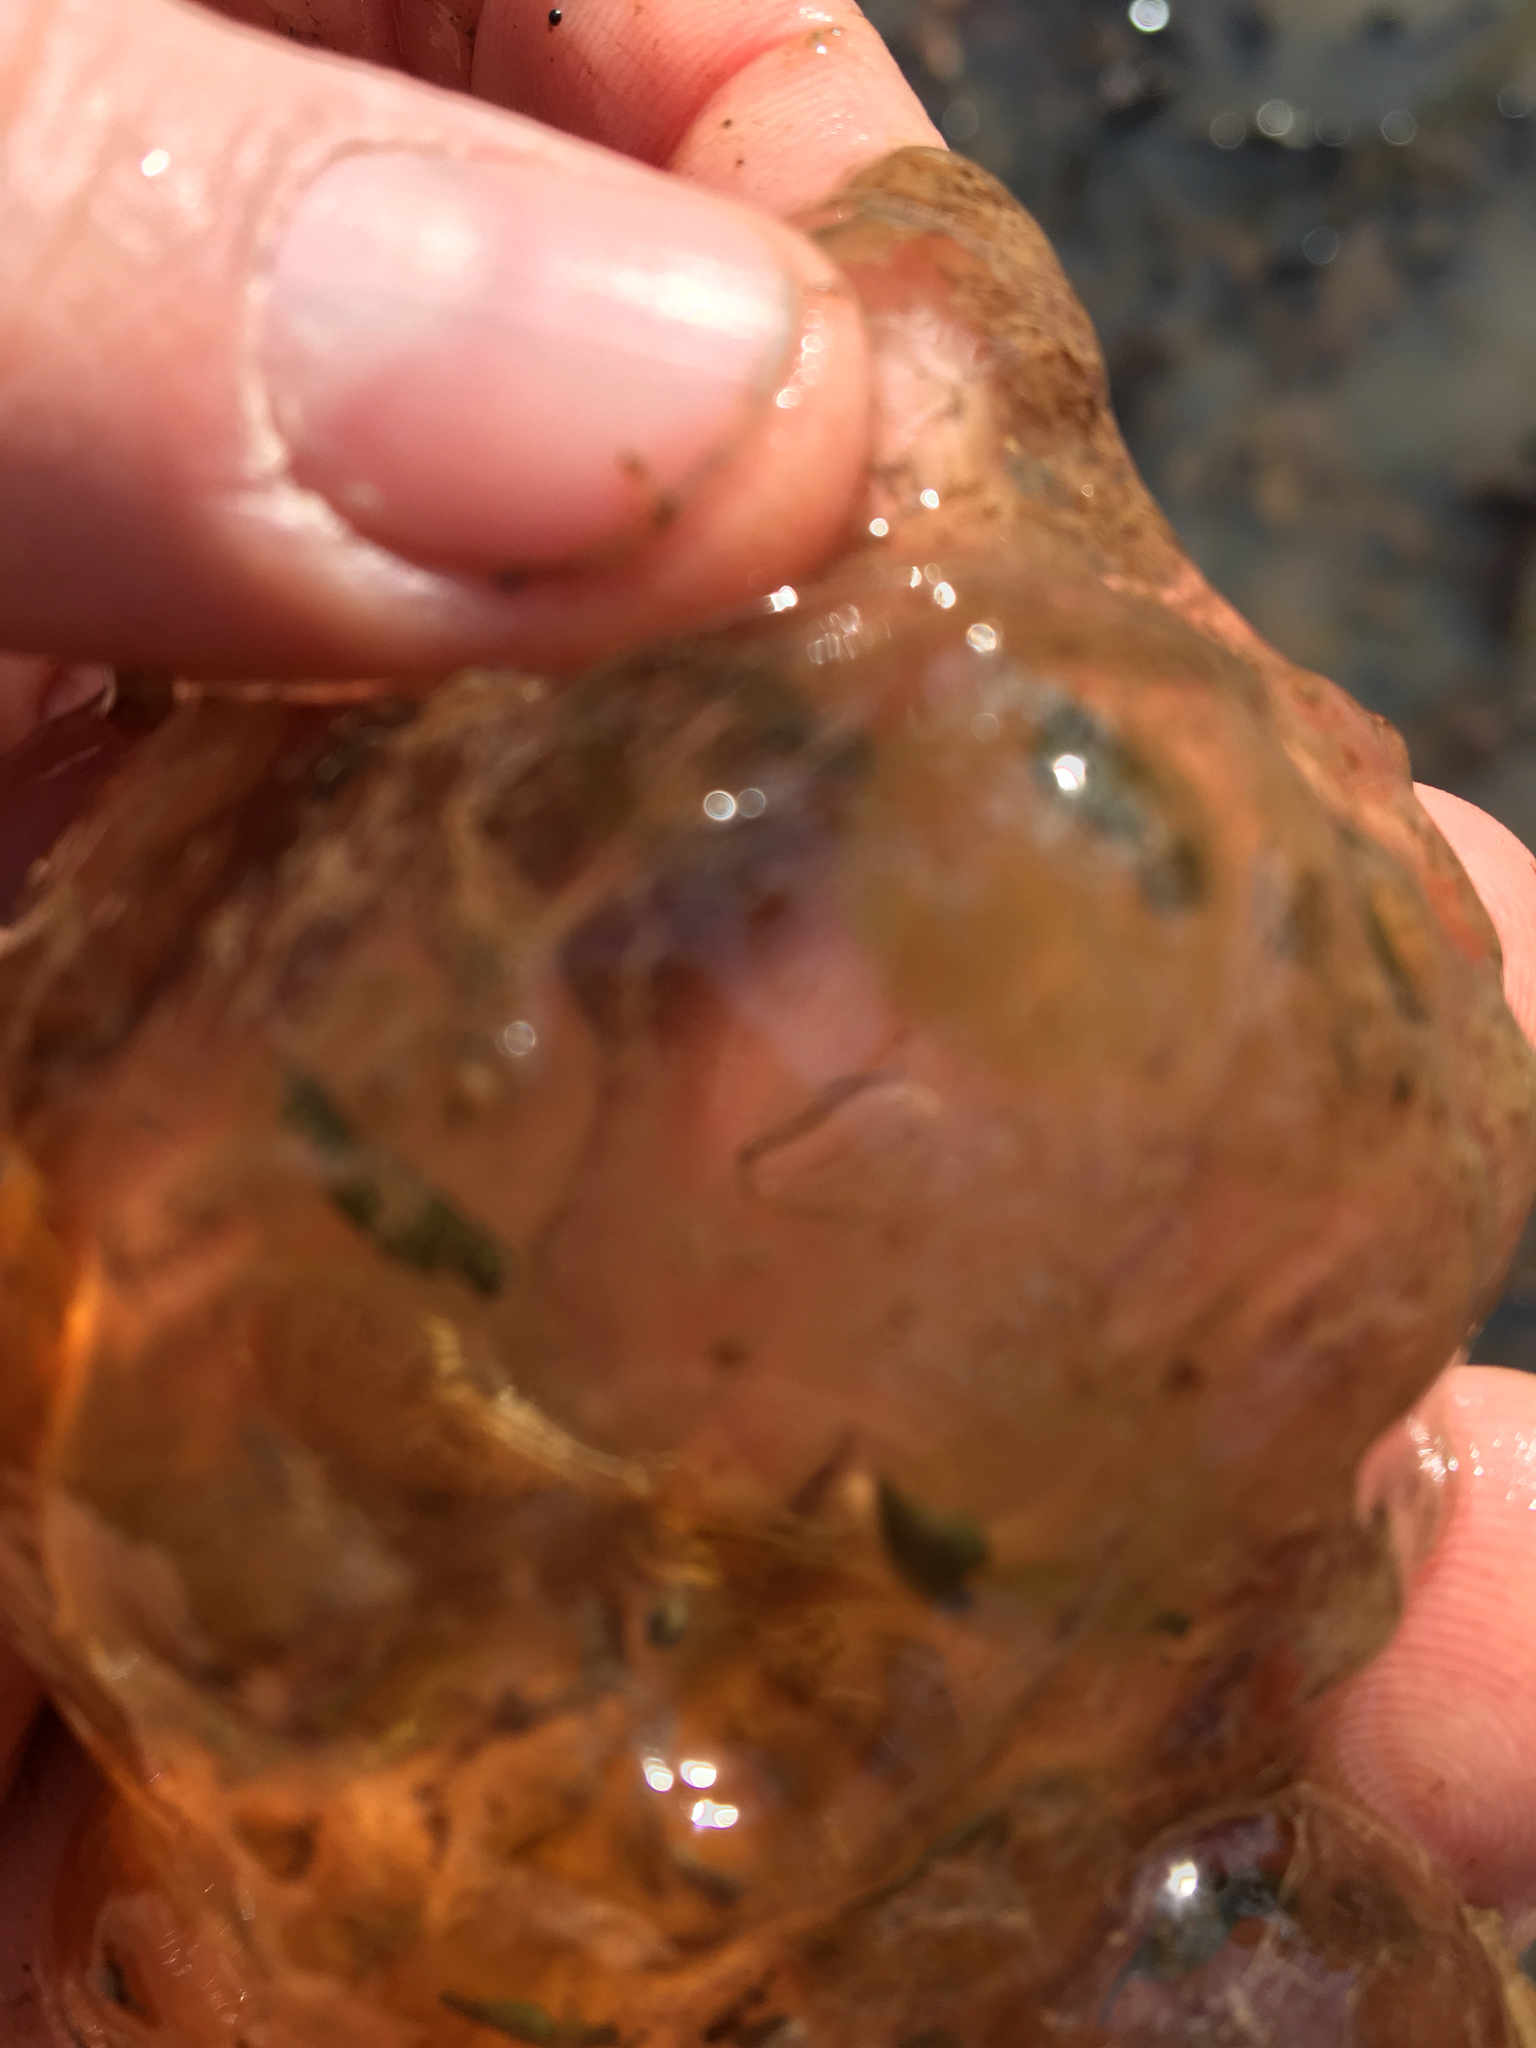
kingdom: Animalia
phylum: Chordata
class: Amphibia
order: Caudata
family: Ambystomatidae
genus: Ambystoma
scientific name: Ambystoma maculatum
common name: Spotted salamander
